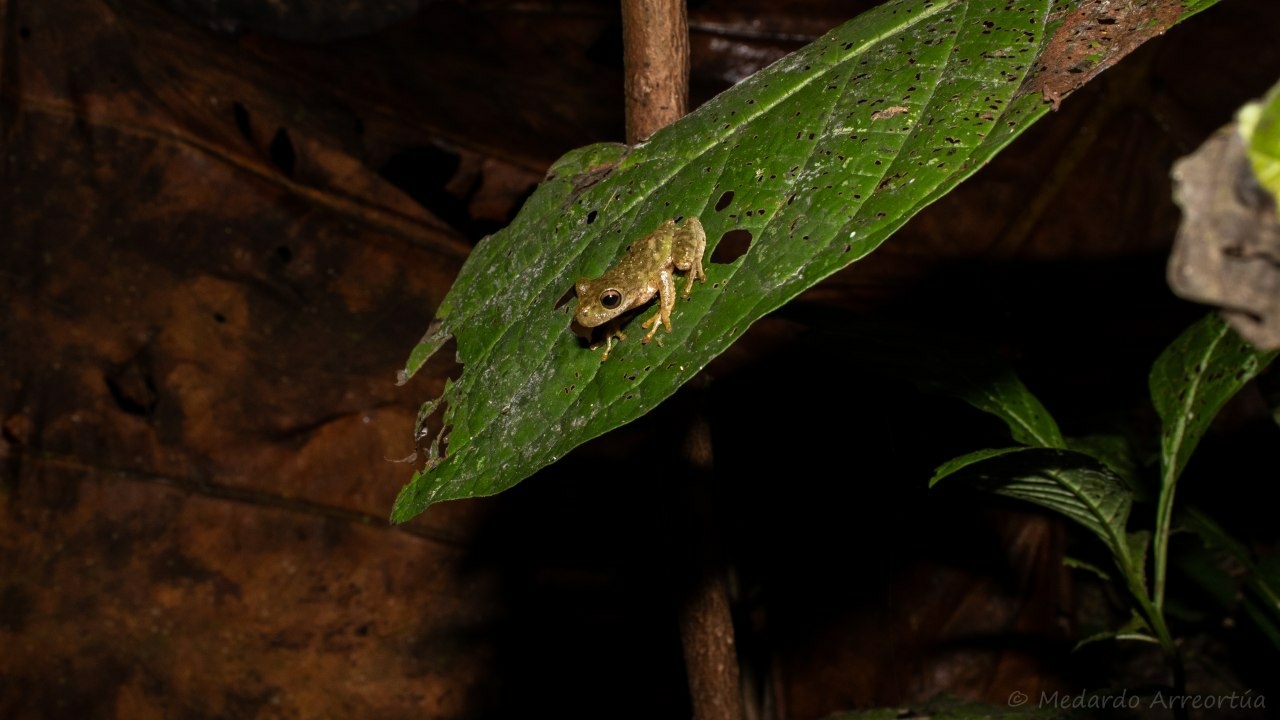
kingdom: Animalia
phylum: Chordata
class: Amphibia
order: Anura
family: Hylidae
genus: Duellmanohyla
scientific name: Duellmanohyla ignicolor
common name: Sierra juarez brook frog
